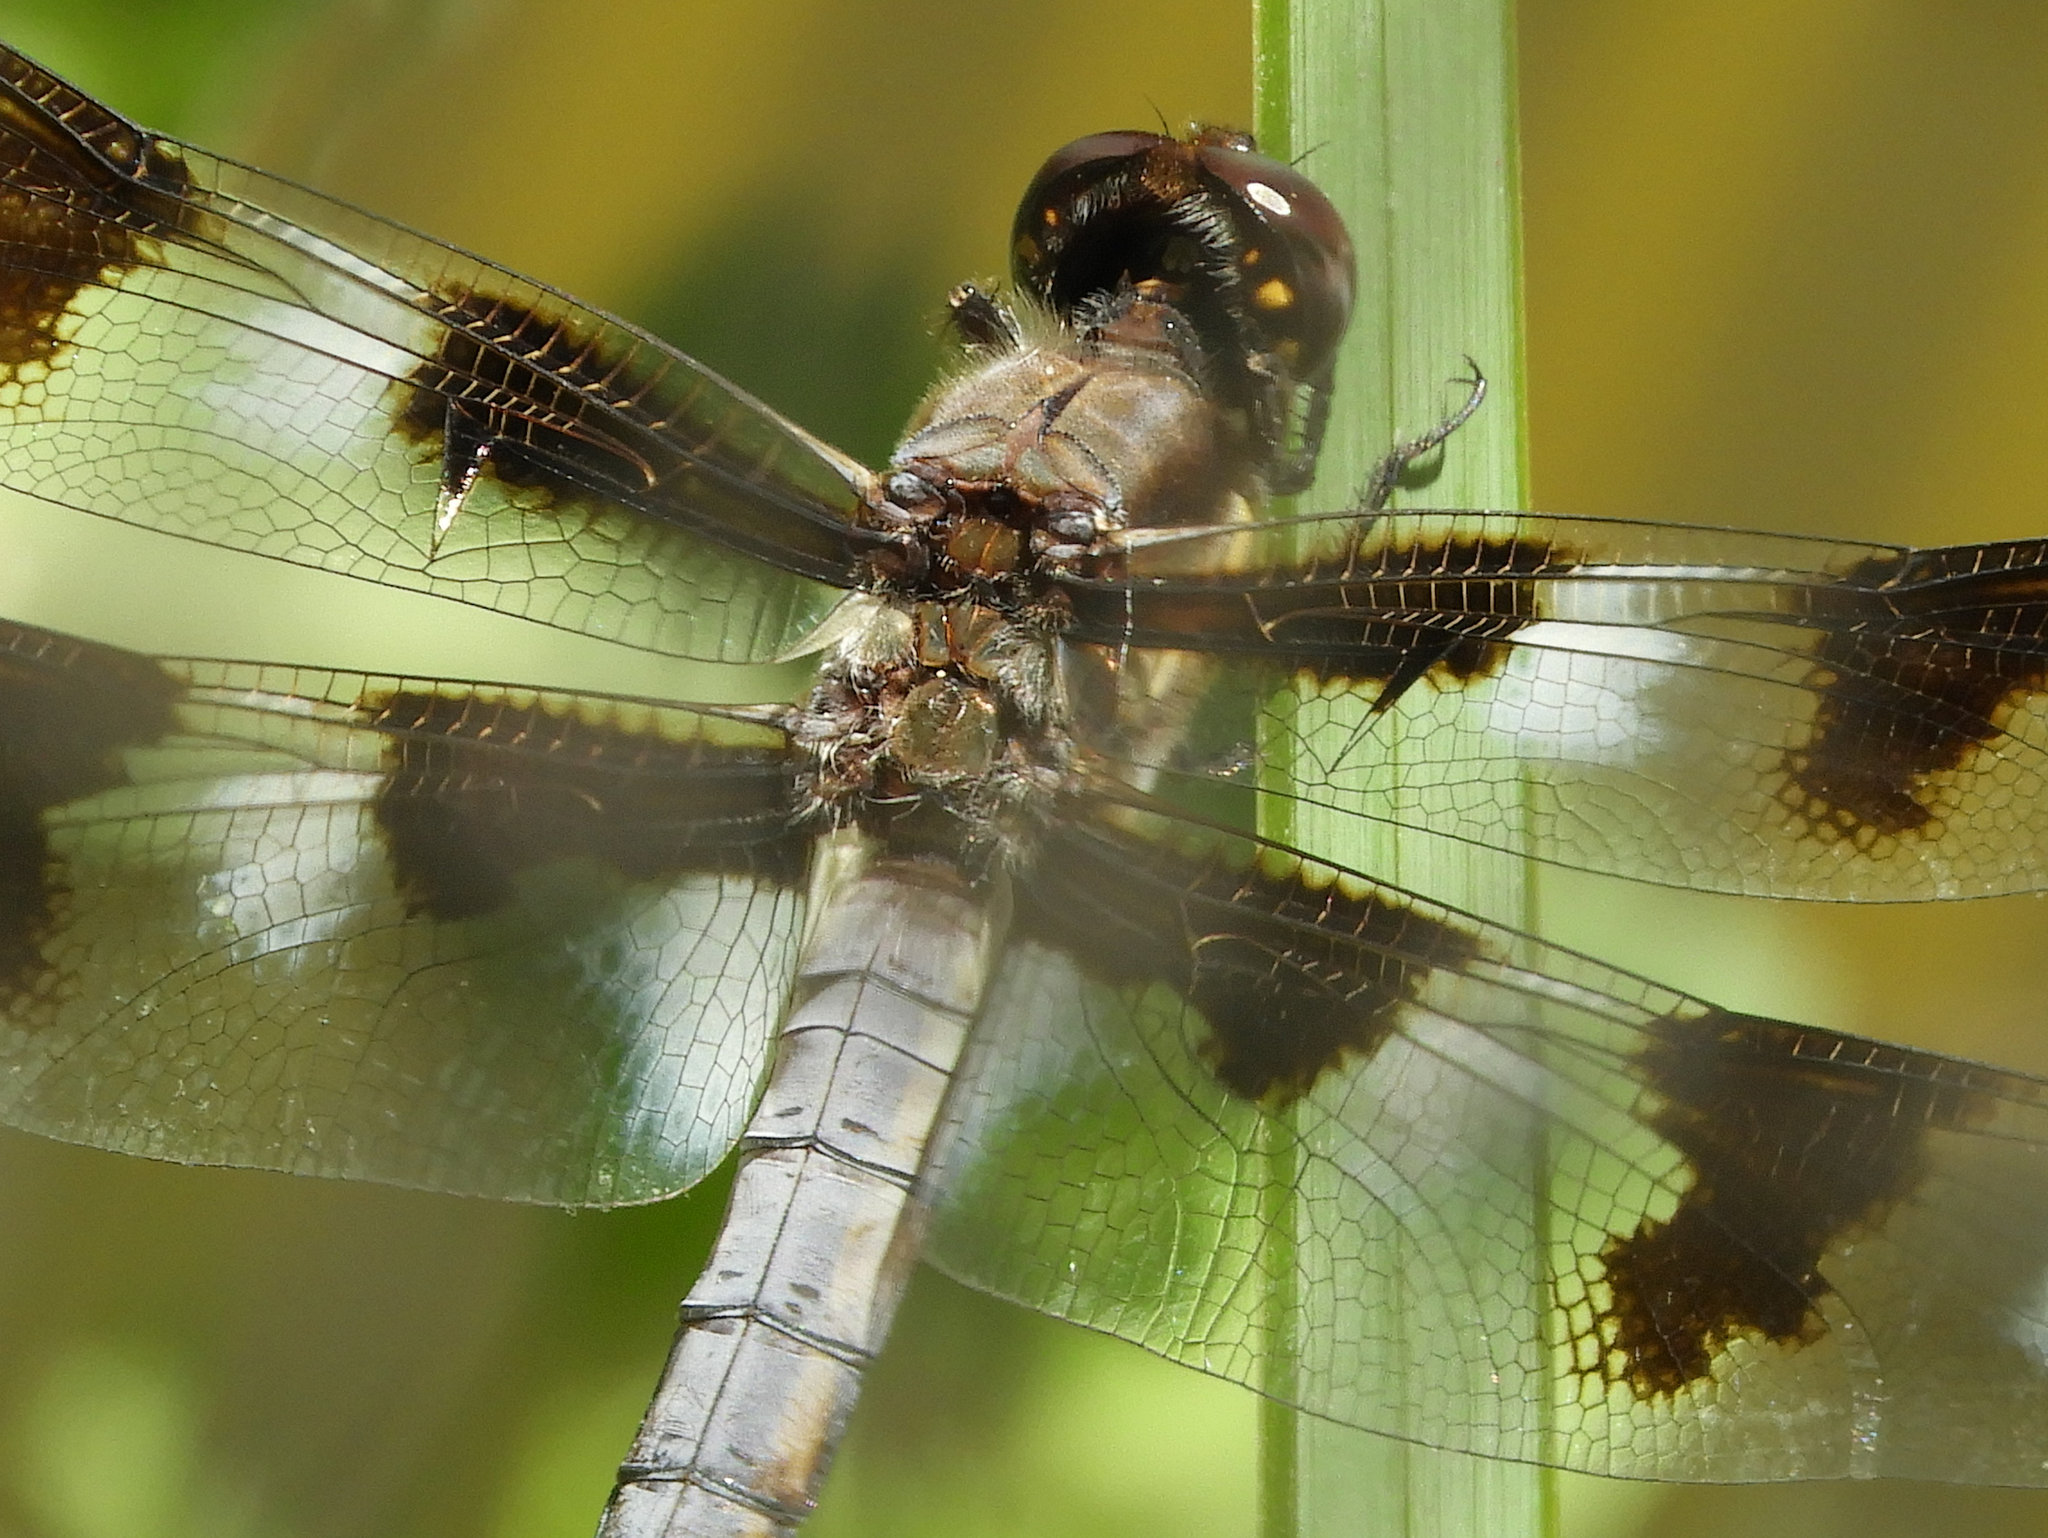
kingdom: Animalia
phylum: Arthropoda
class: Insecta
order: Odonata
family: Libellulidae
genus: Libellula
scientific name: Libellula pulchella
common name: Twelve-spotted skimmer
